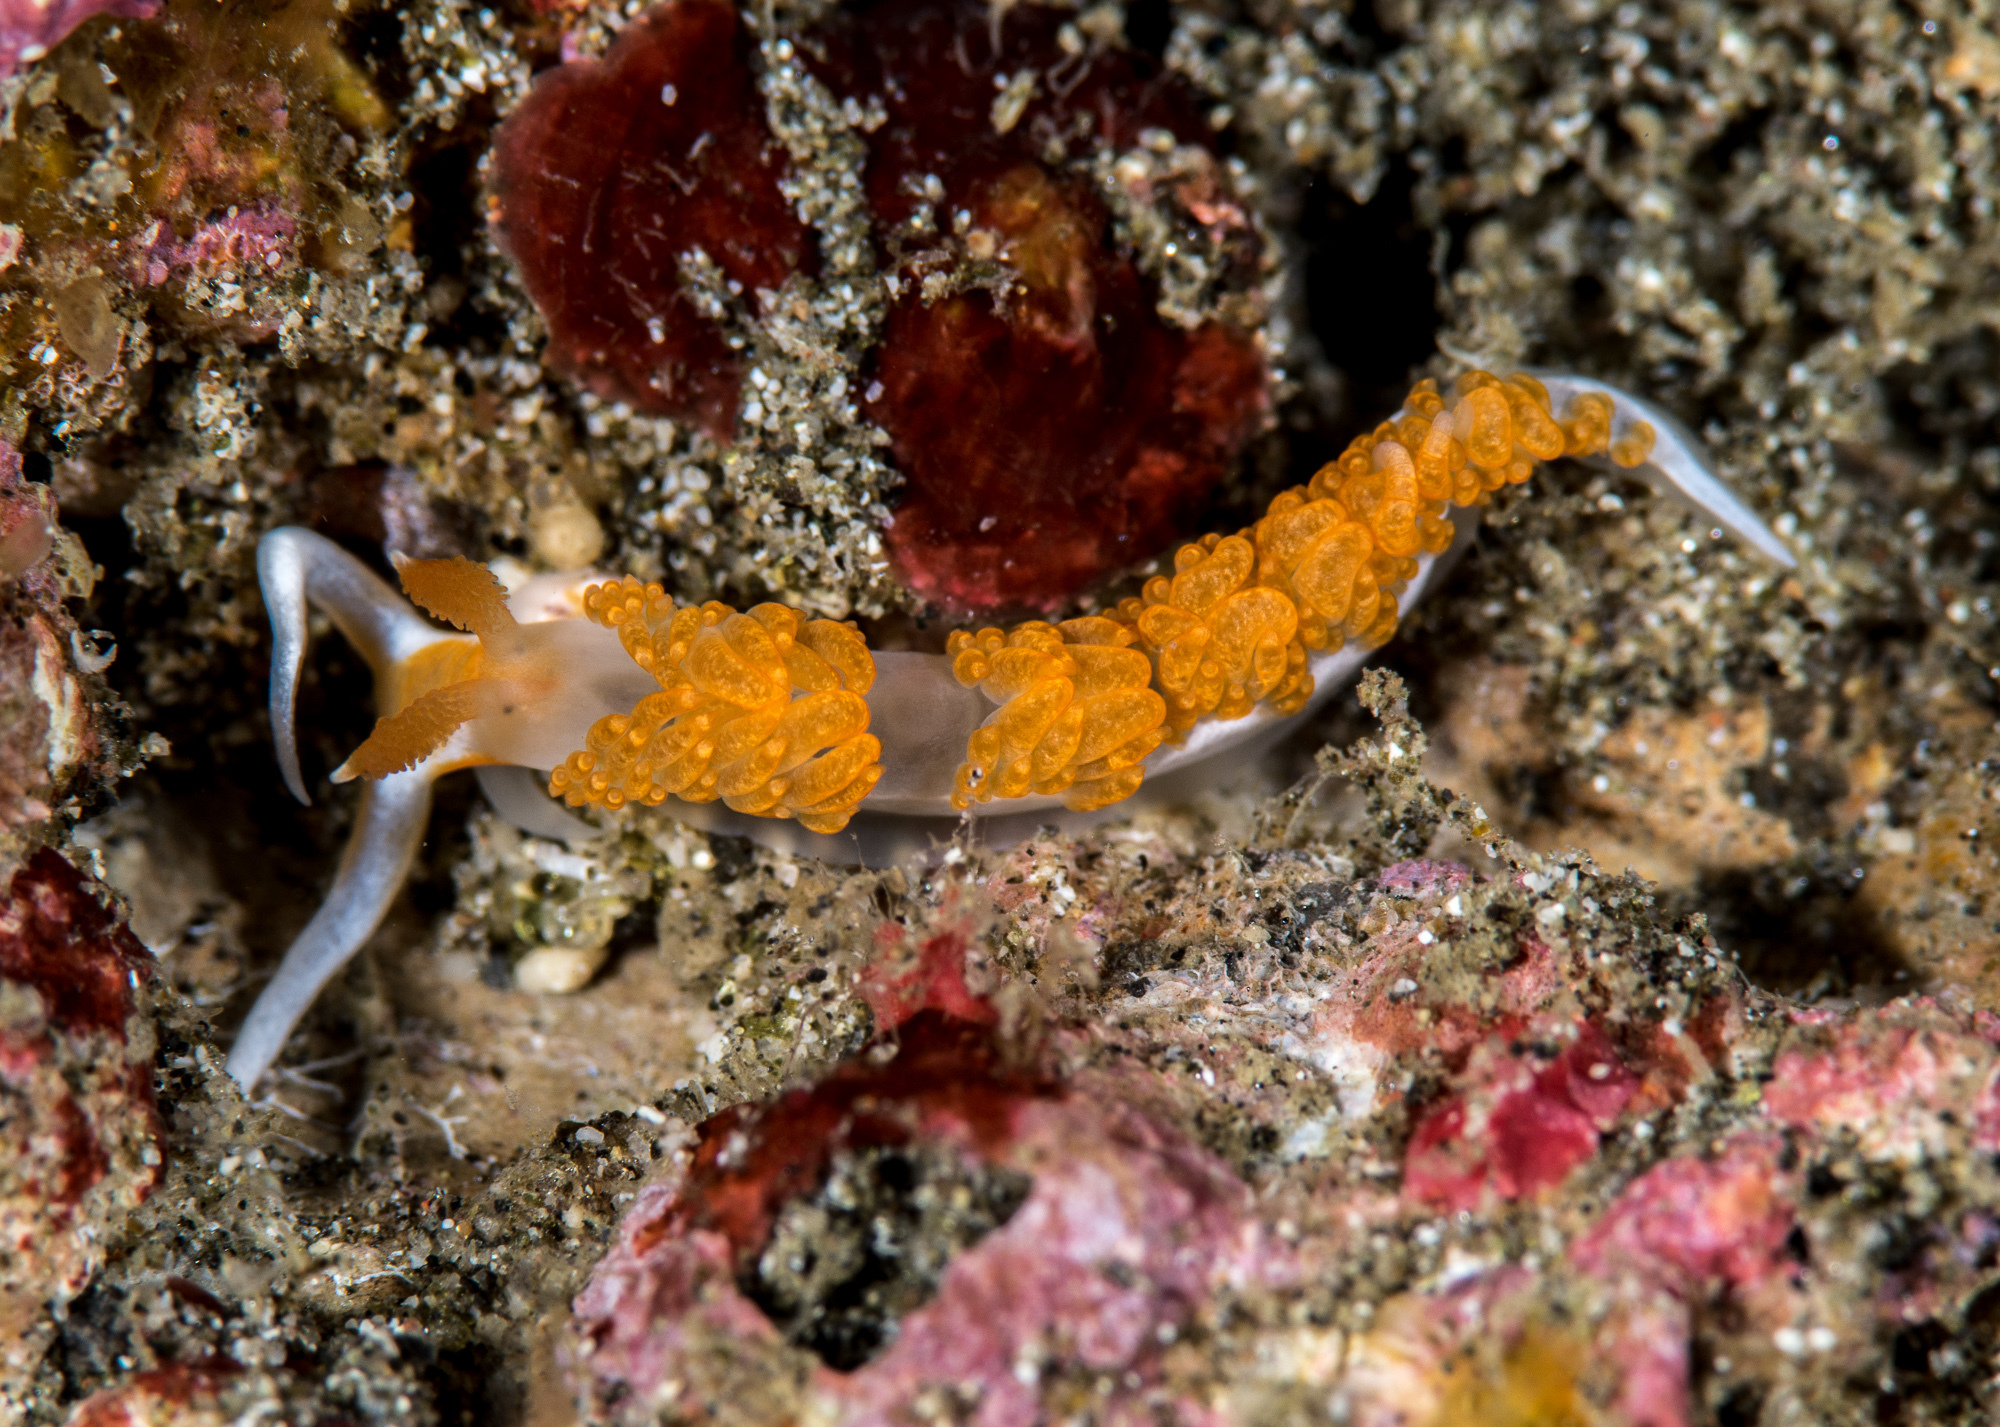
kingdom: Animalia
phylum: Mollusca
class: Gastropoda
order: Nudibranchia
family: Facelinidae
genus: Moridilla
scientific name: Moridilla brockii
